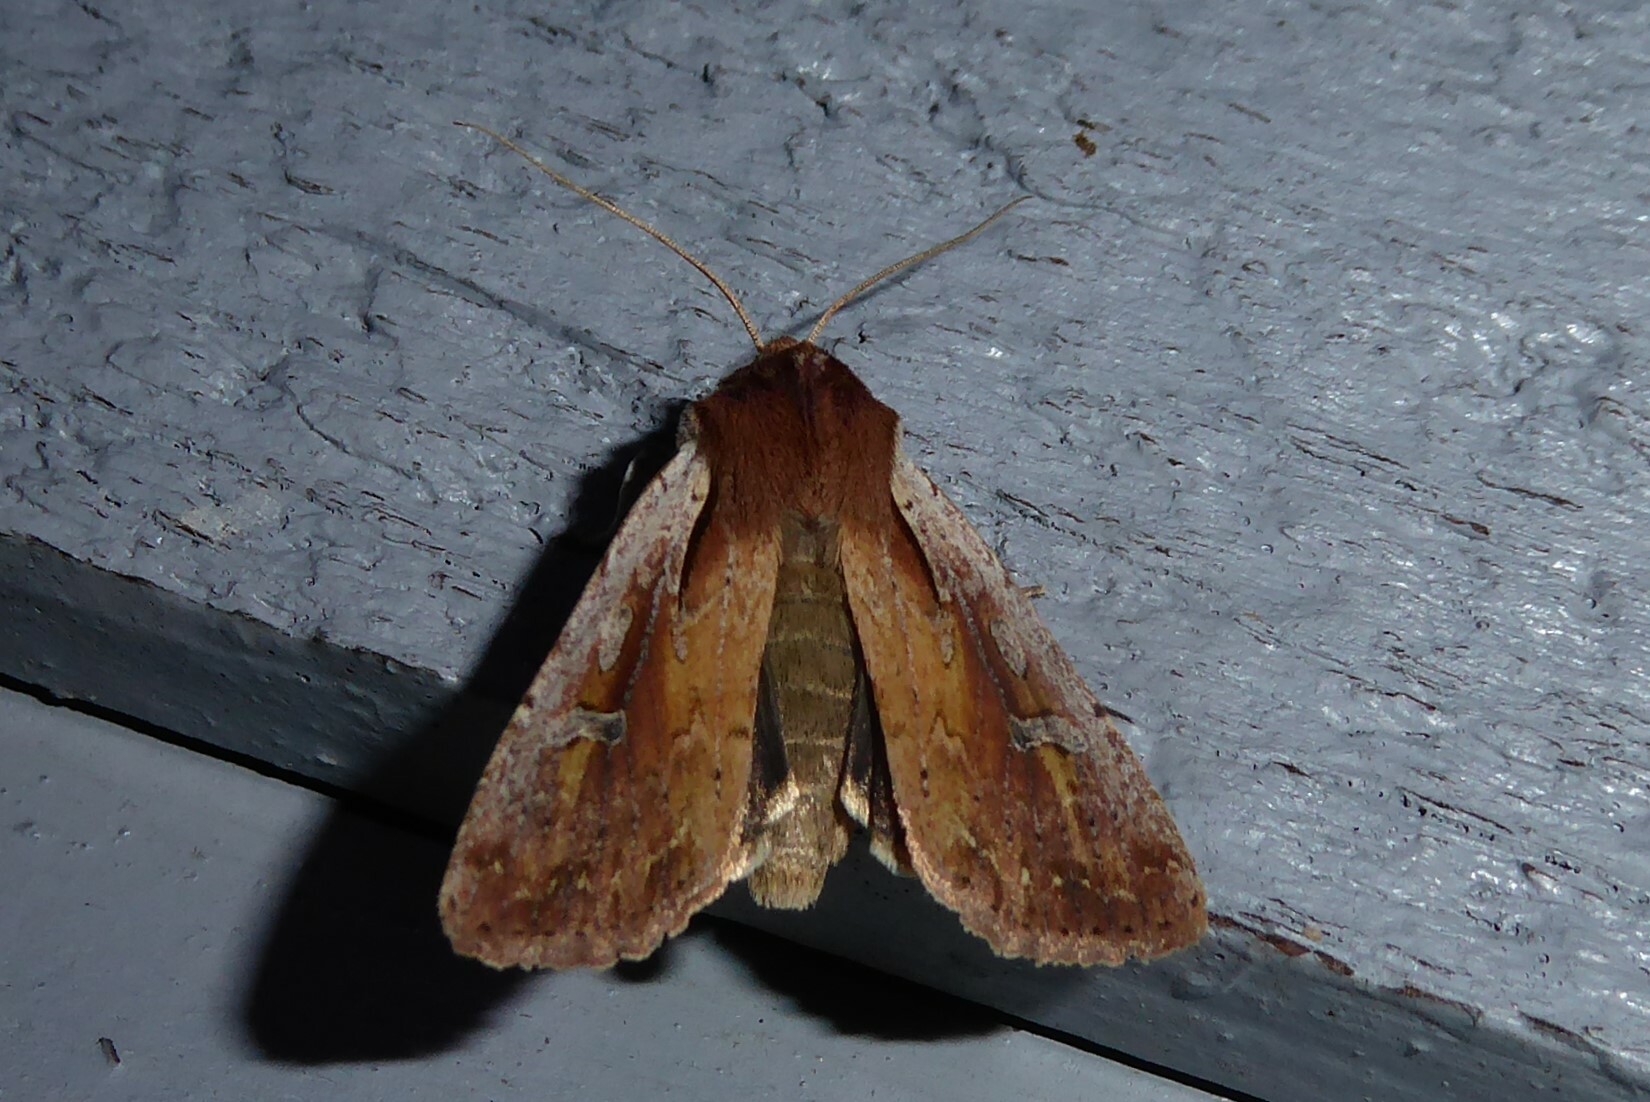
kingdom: Animalia
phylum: Arthropoda
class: Insecta
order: Lepidoptera
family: Noctuidae
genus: Ichneutica
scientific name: Ichneutica atristriga
